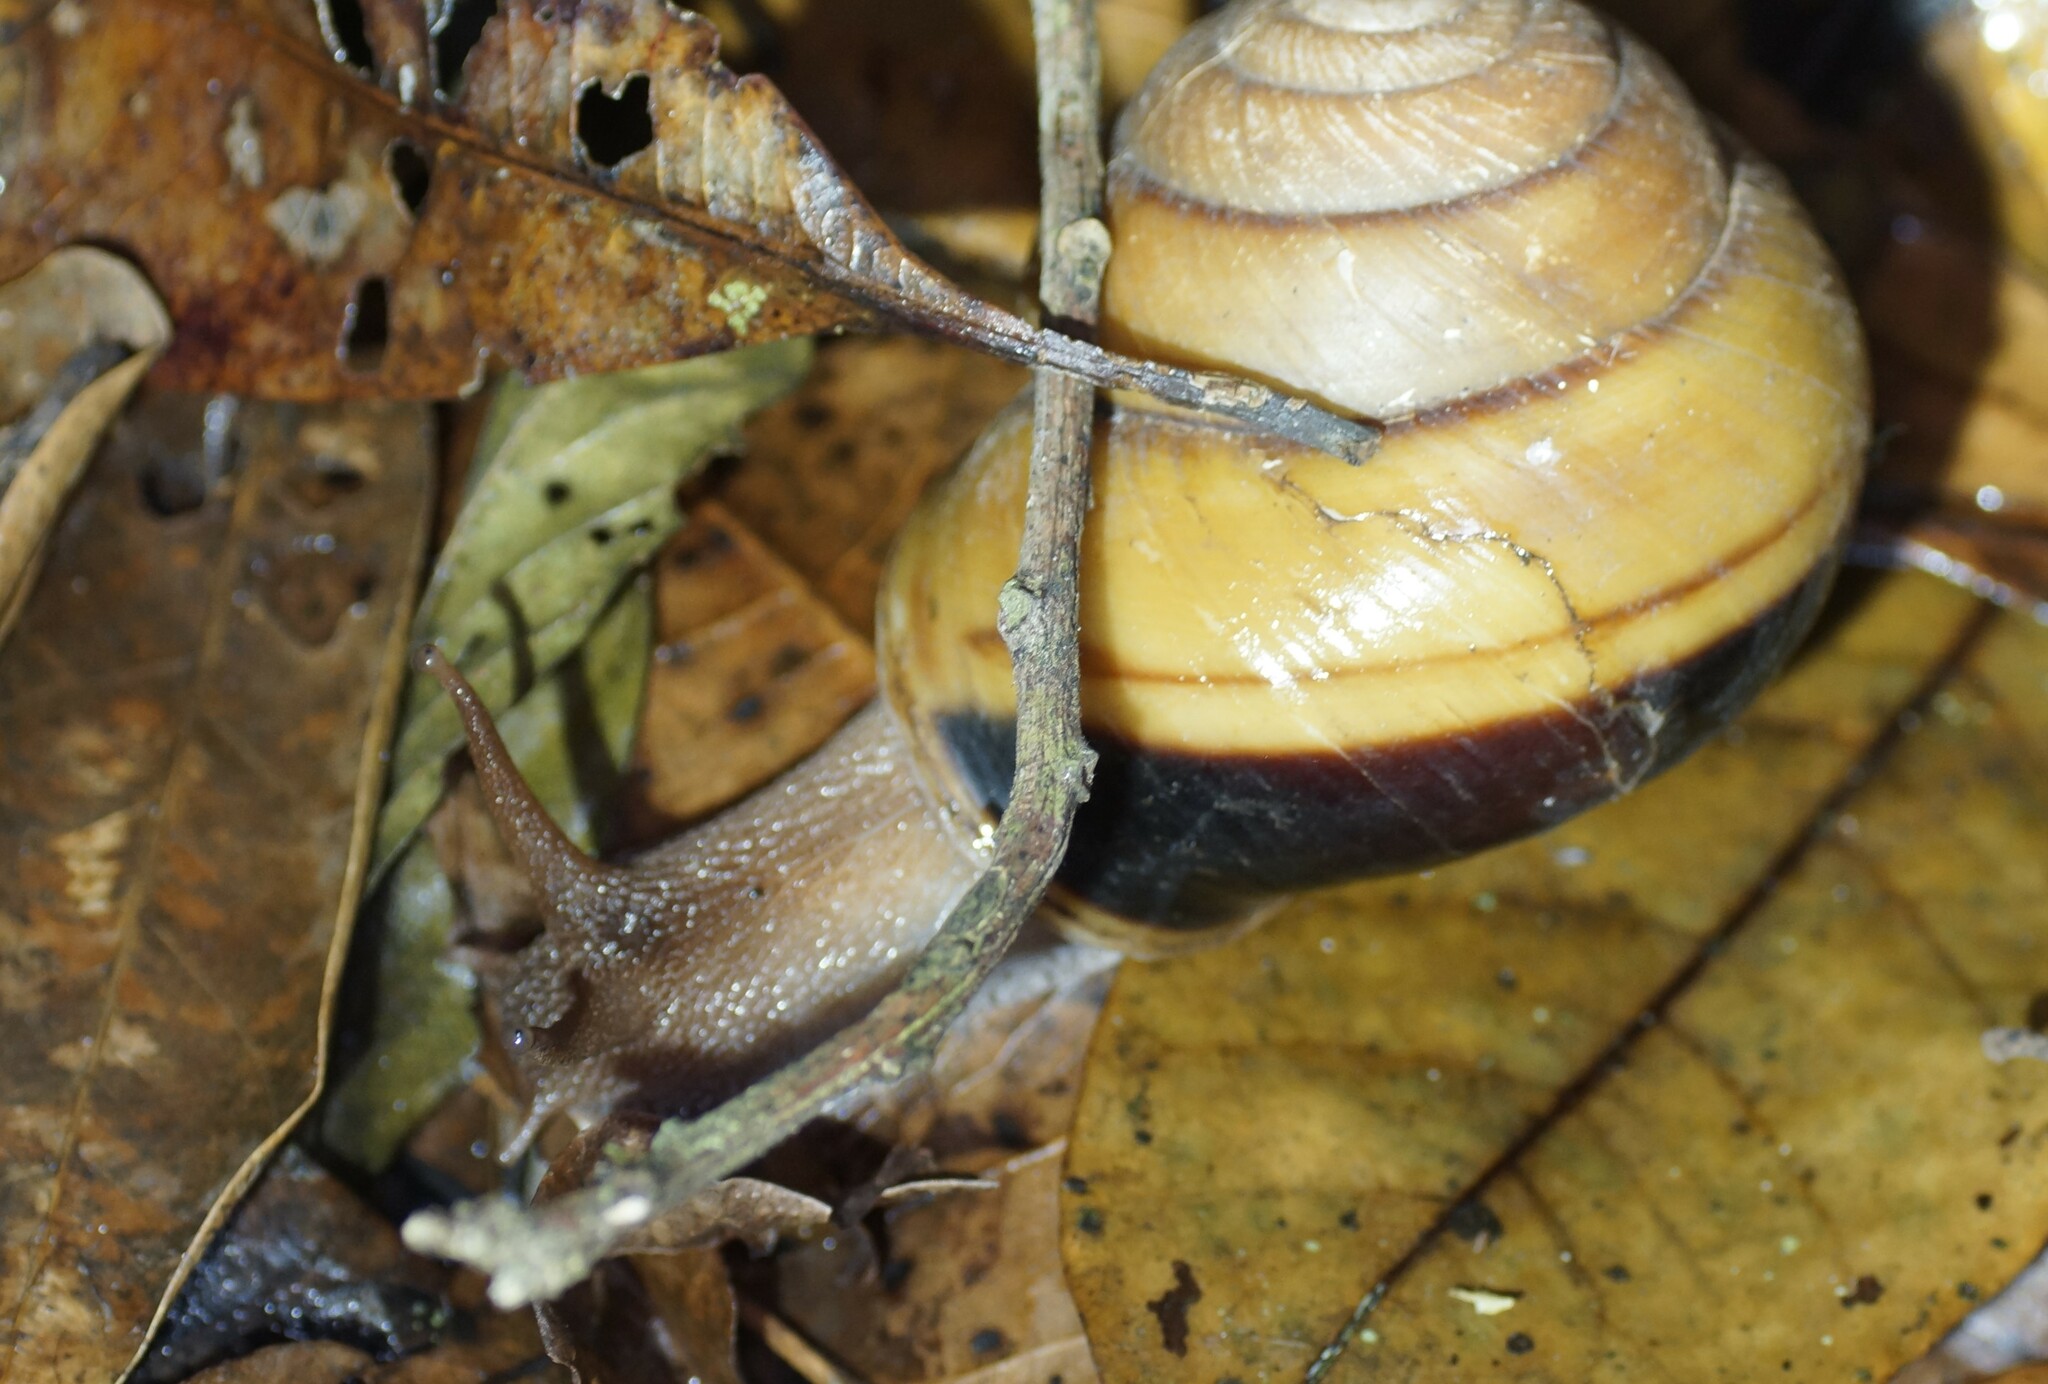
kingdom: Animalia
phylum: Mollusca
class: Gastropoda
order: Stylommatophora
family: Camaenidae
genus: Hadra
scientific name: Hadra bipartita
